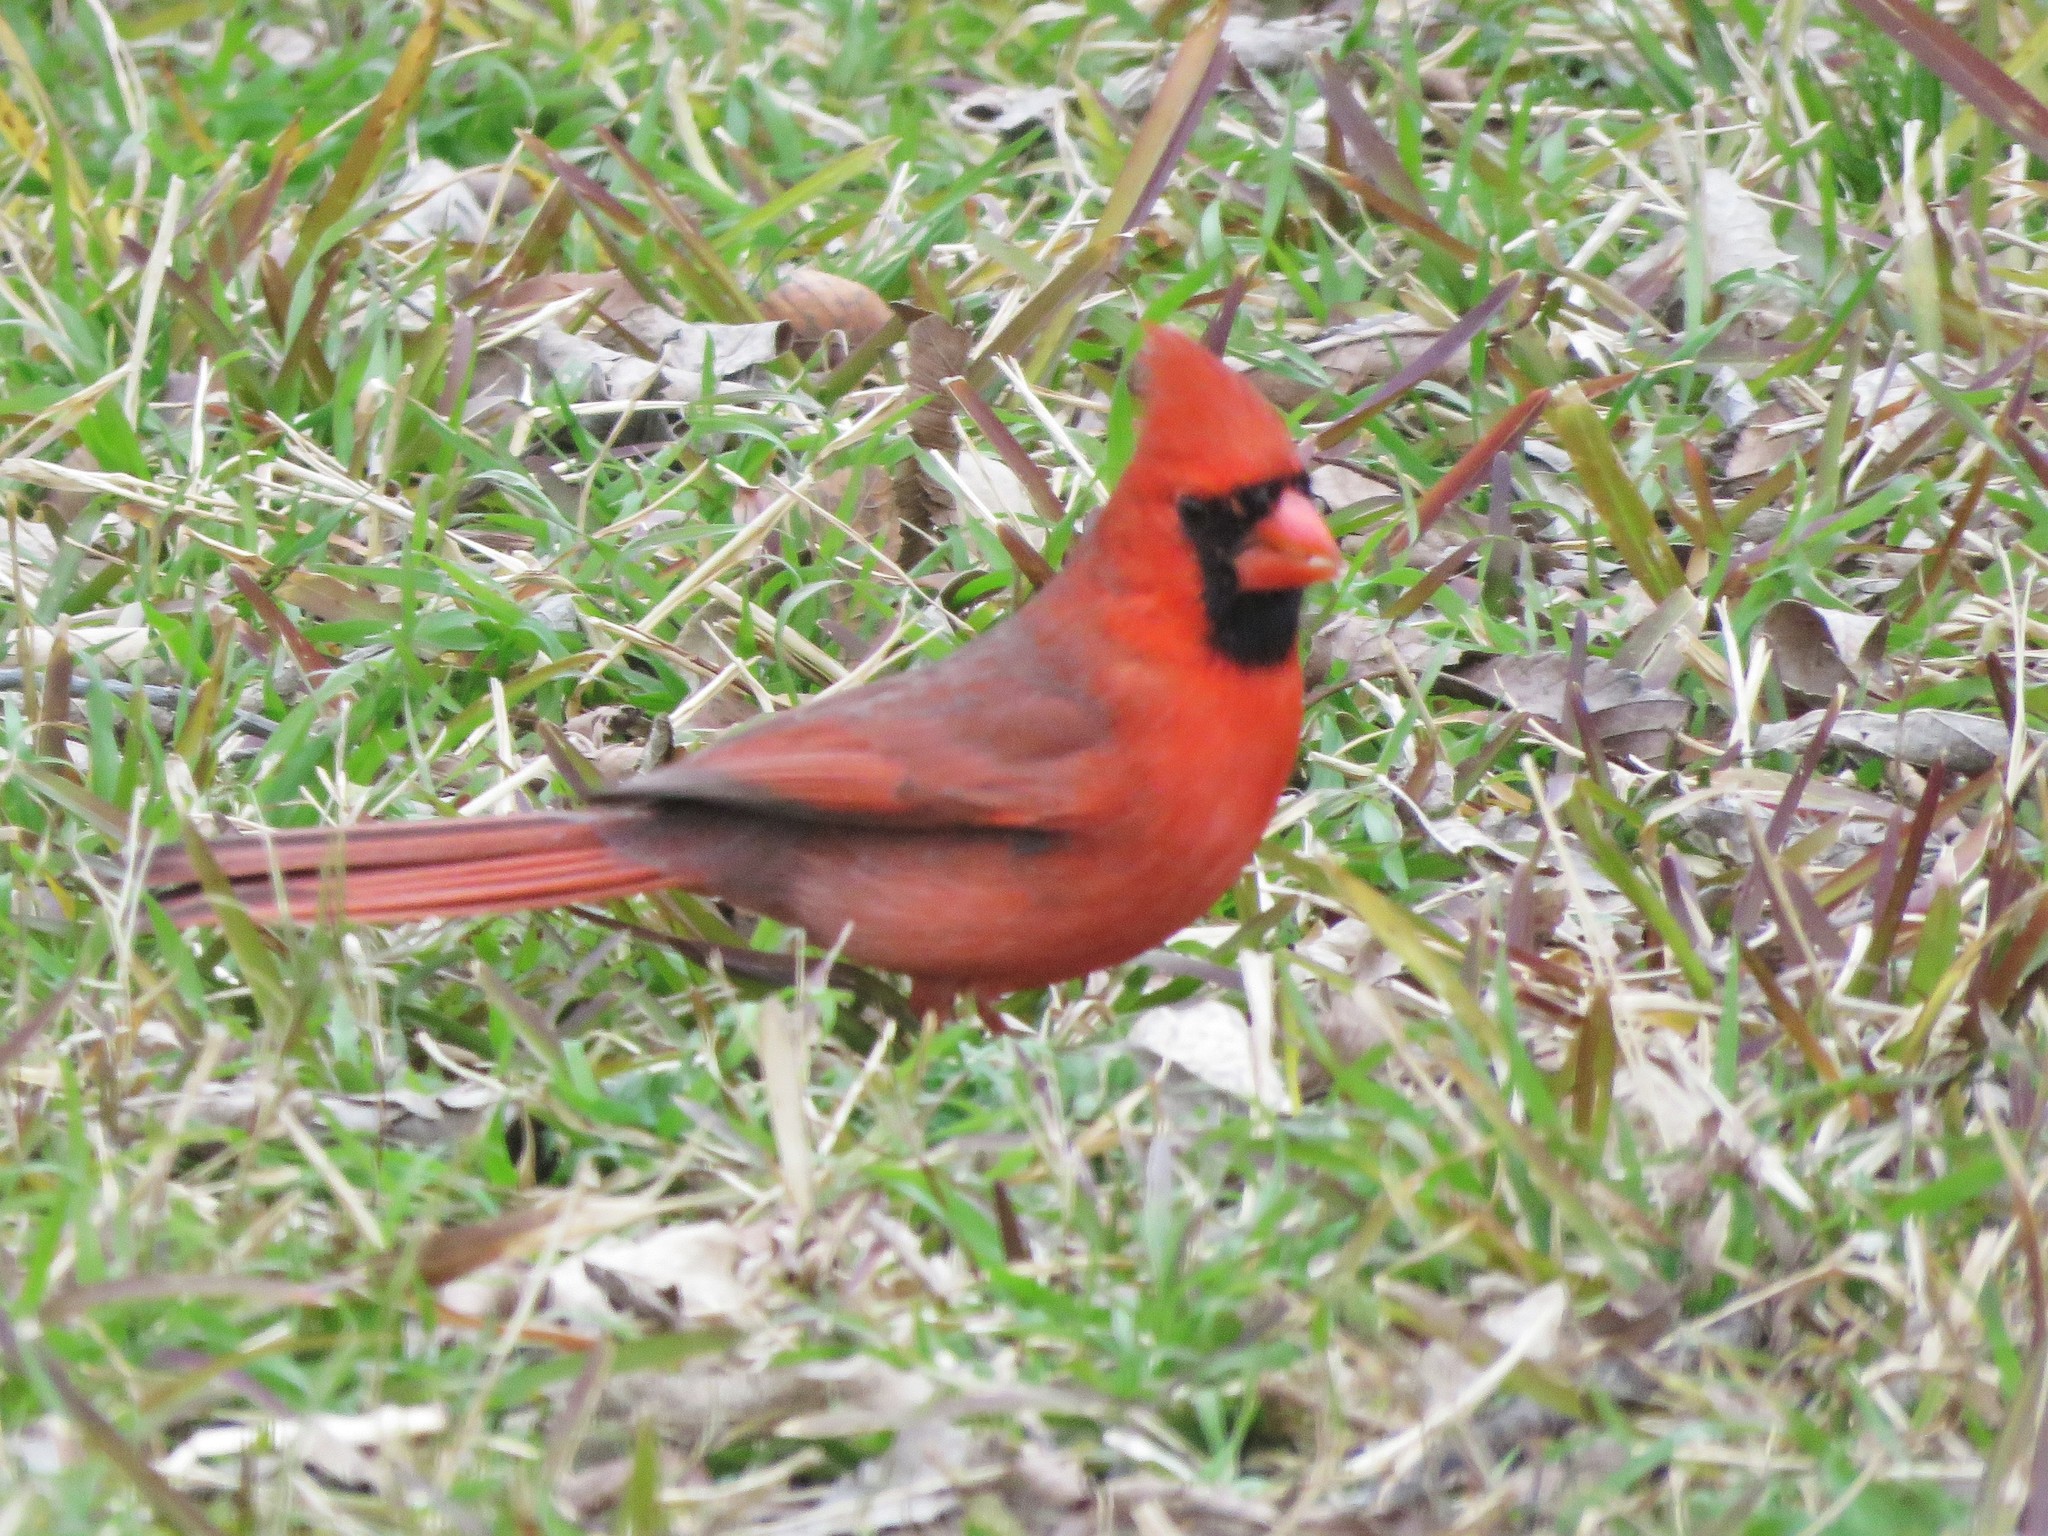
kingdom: Animalia
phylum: Chordata
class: Aves
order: Passeriformes
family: Cardinalidae
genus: Cardinalis
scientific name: Cardinalis cardinalis
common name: Northern cardinal
